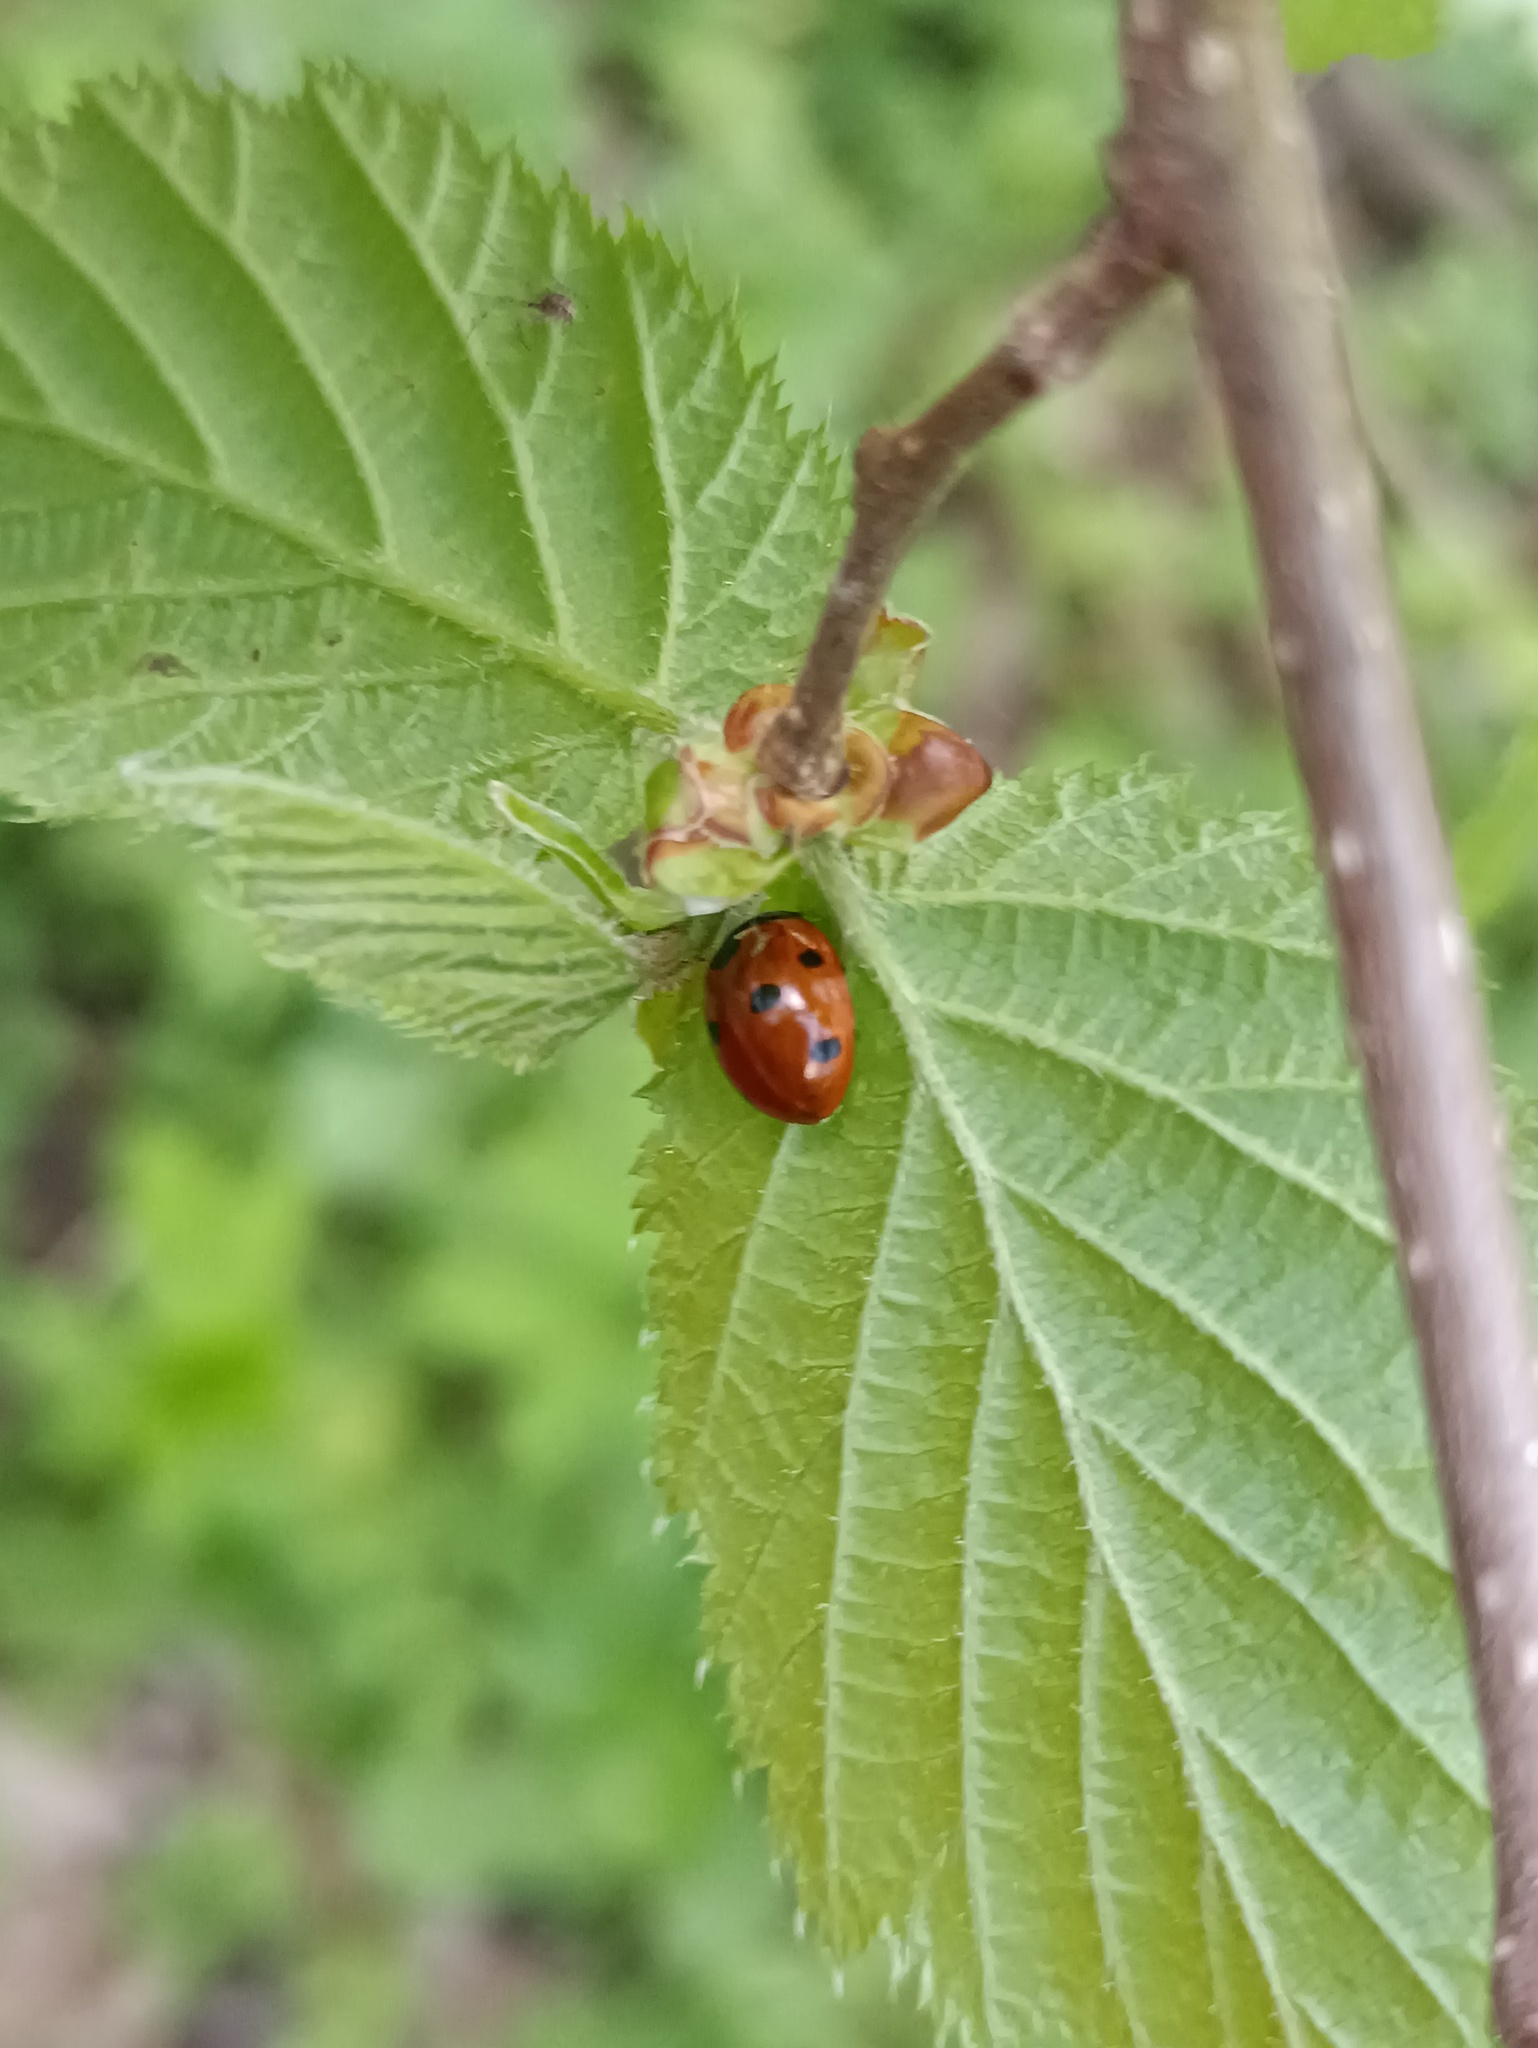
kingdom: Animalia
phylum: Arthropoda
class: Insecta
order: Coleoptera
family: Coccinellidae
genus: Coccinella
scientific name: Coccinella septempunctata
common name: Sevenspotted lady beetle
